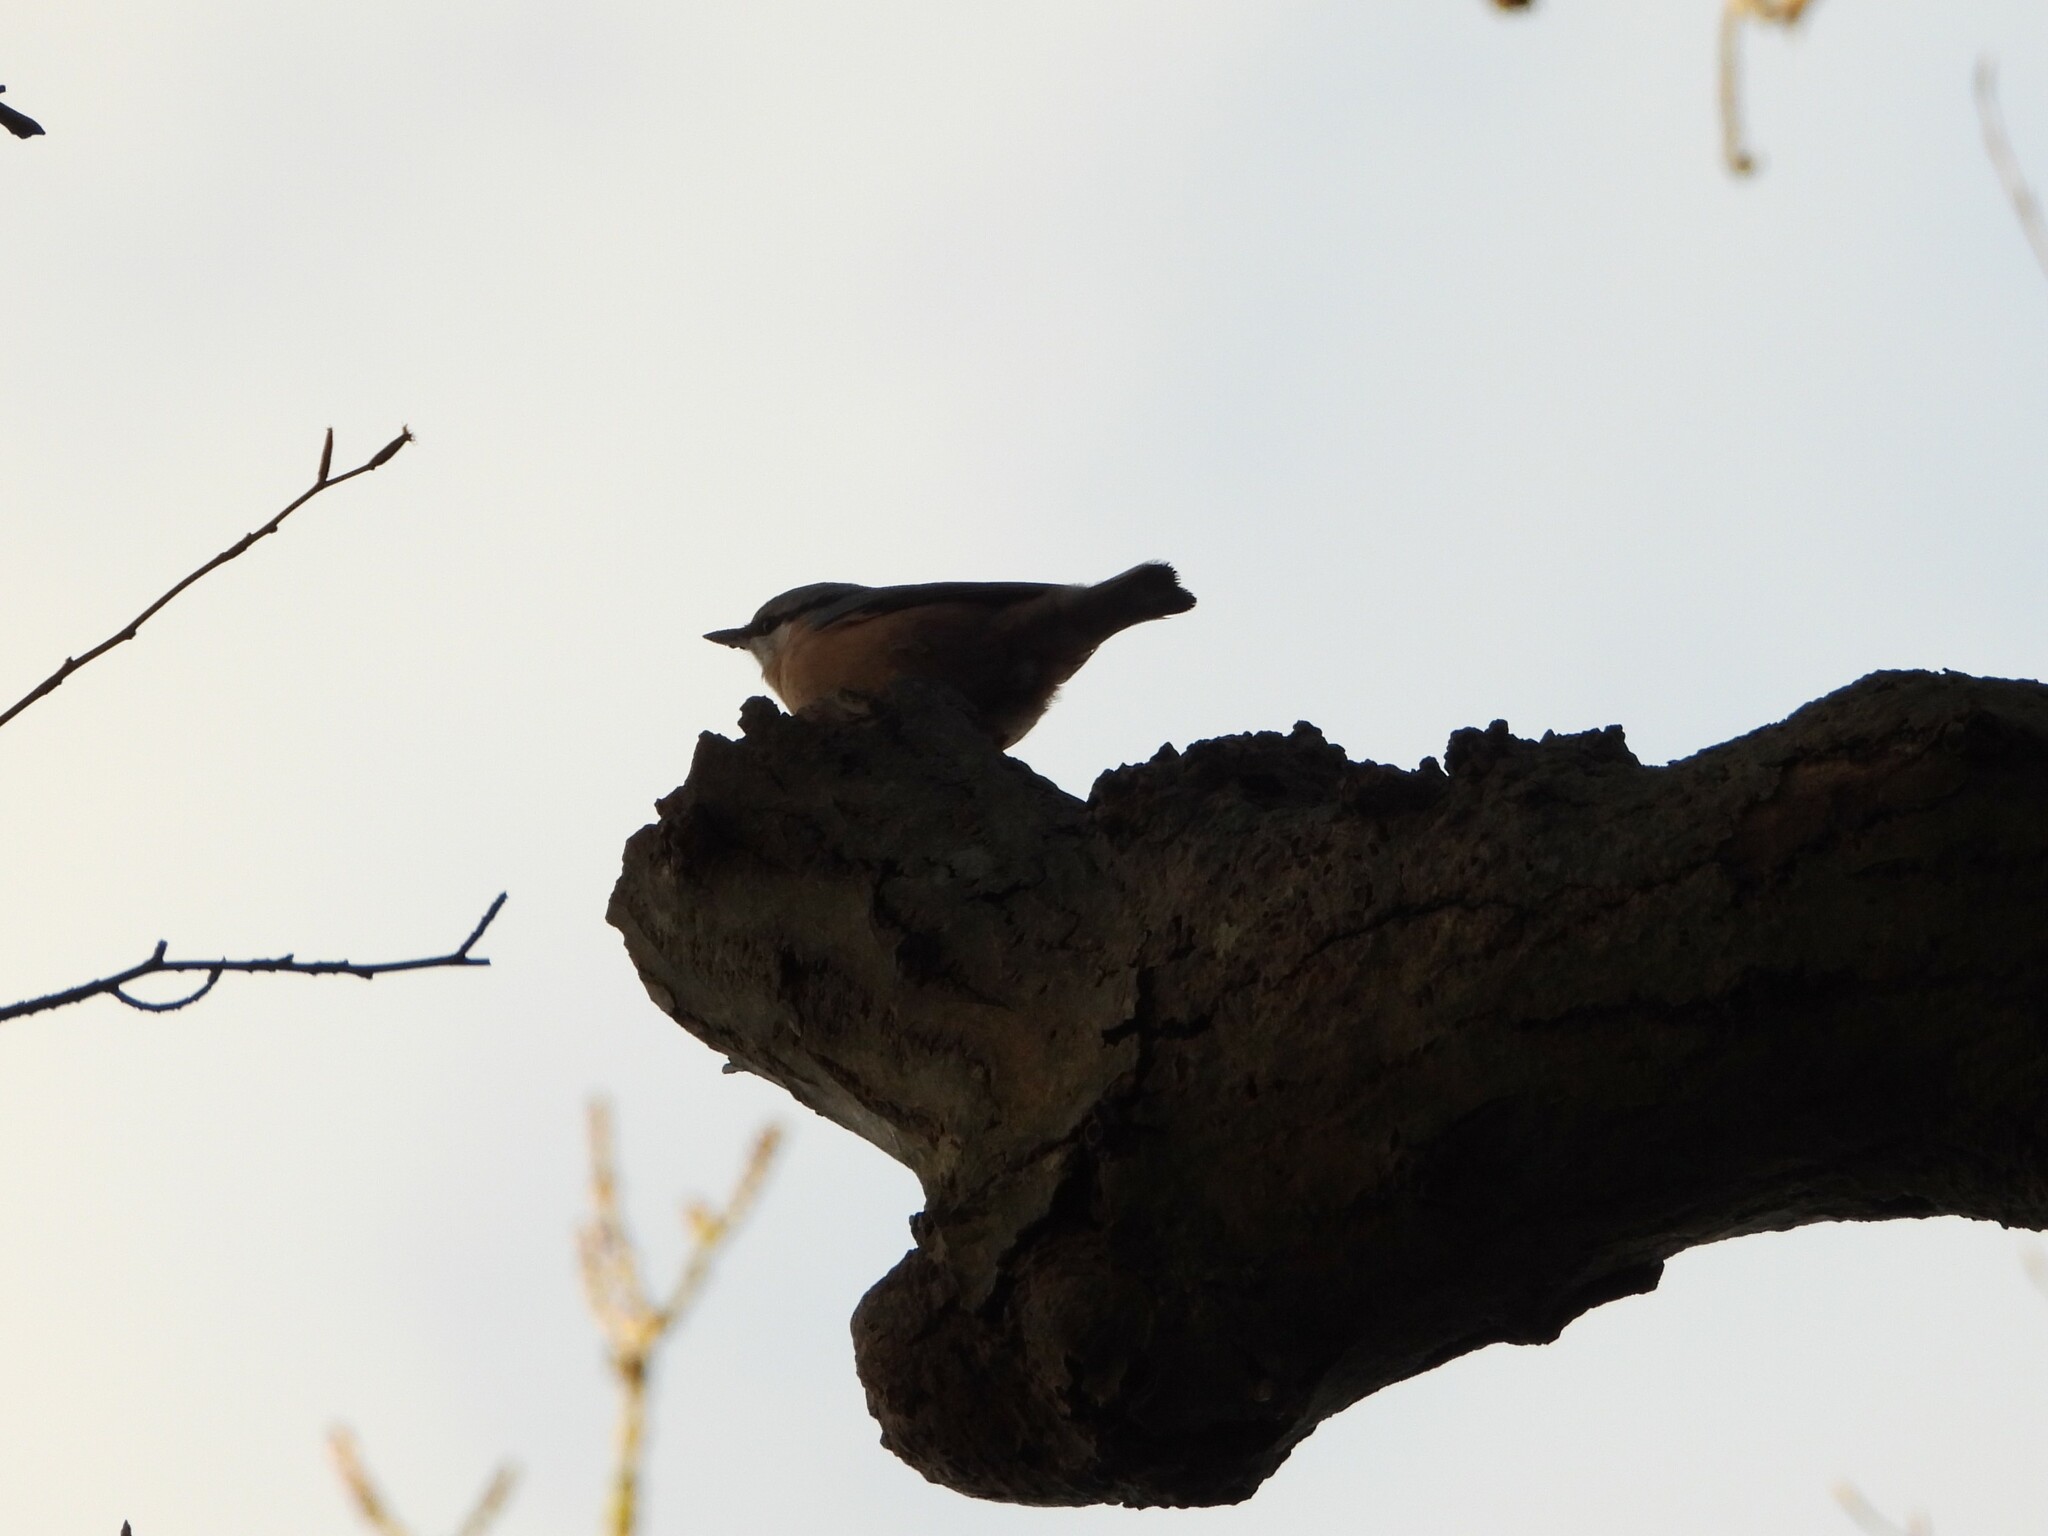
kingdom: Animalia
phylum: Chordata
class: Aves
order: Passeriformes
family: Sittidae
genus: Sitta
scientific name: Sitta europaea
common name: Eurasian nuthatch
